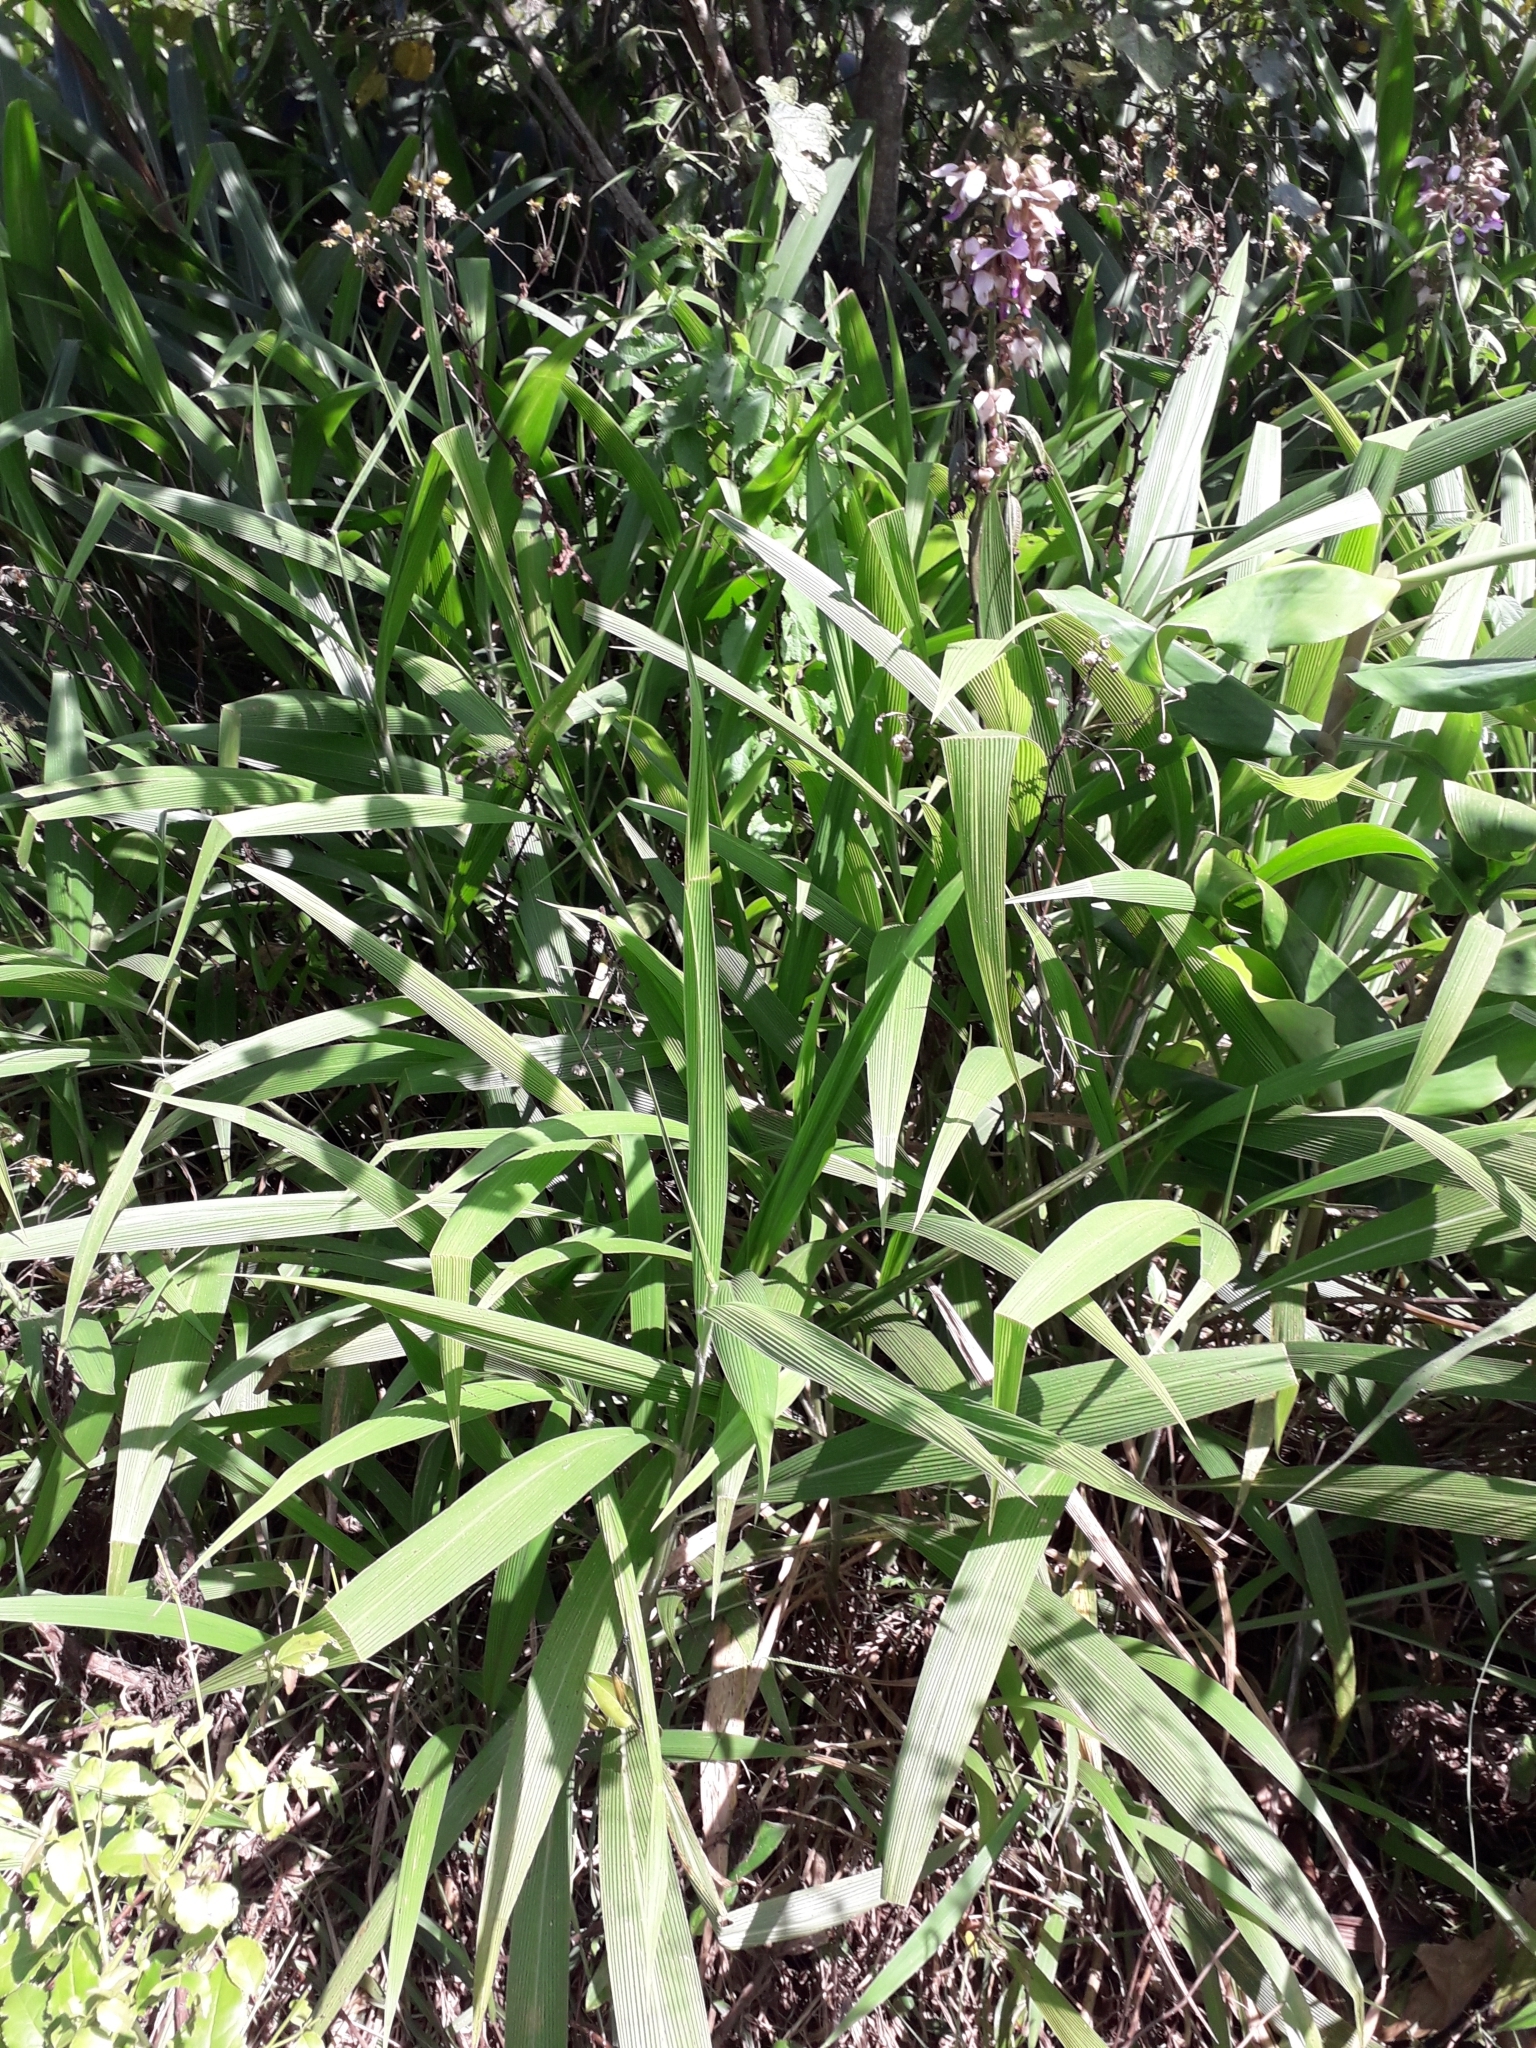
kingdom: Plantae
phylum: Tracheophyta
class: Liliopsida
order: Poales
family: Poaceae
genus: Setaria
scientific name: Setaria megaphylla
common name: Bigleaf bristlegrass
